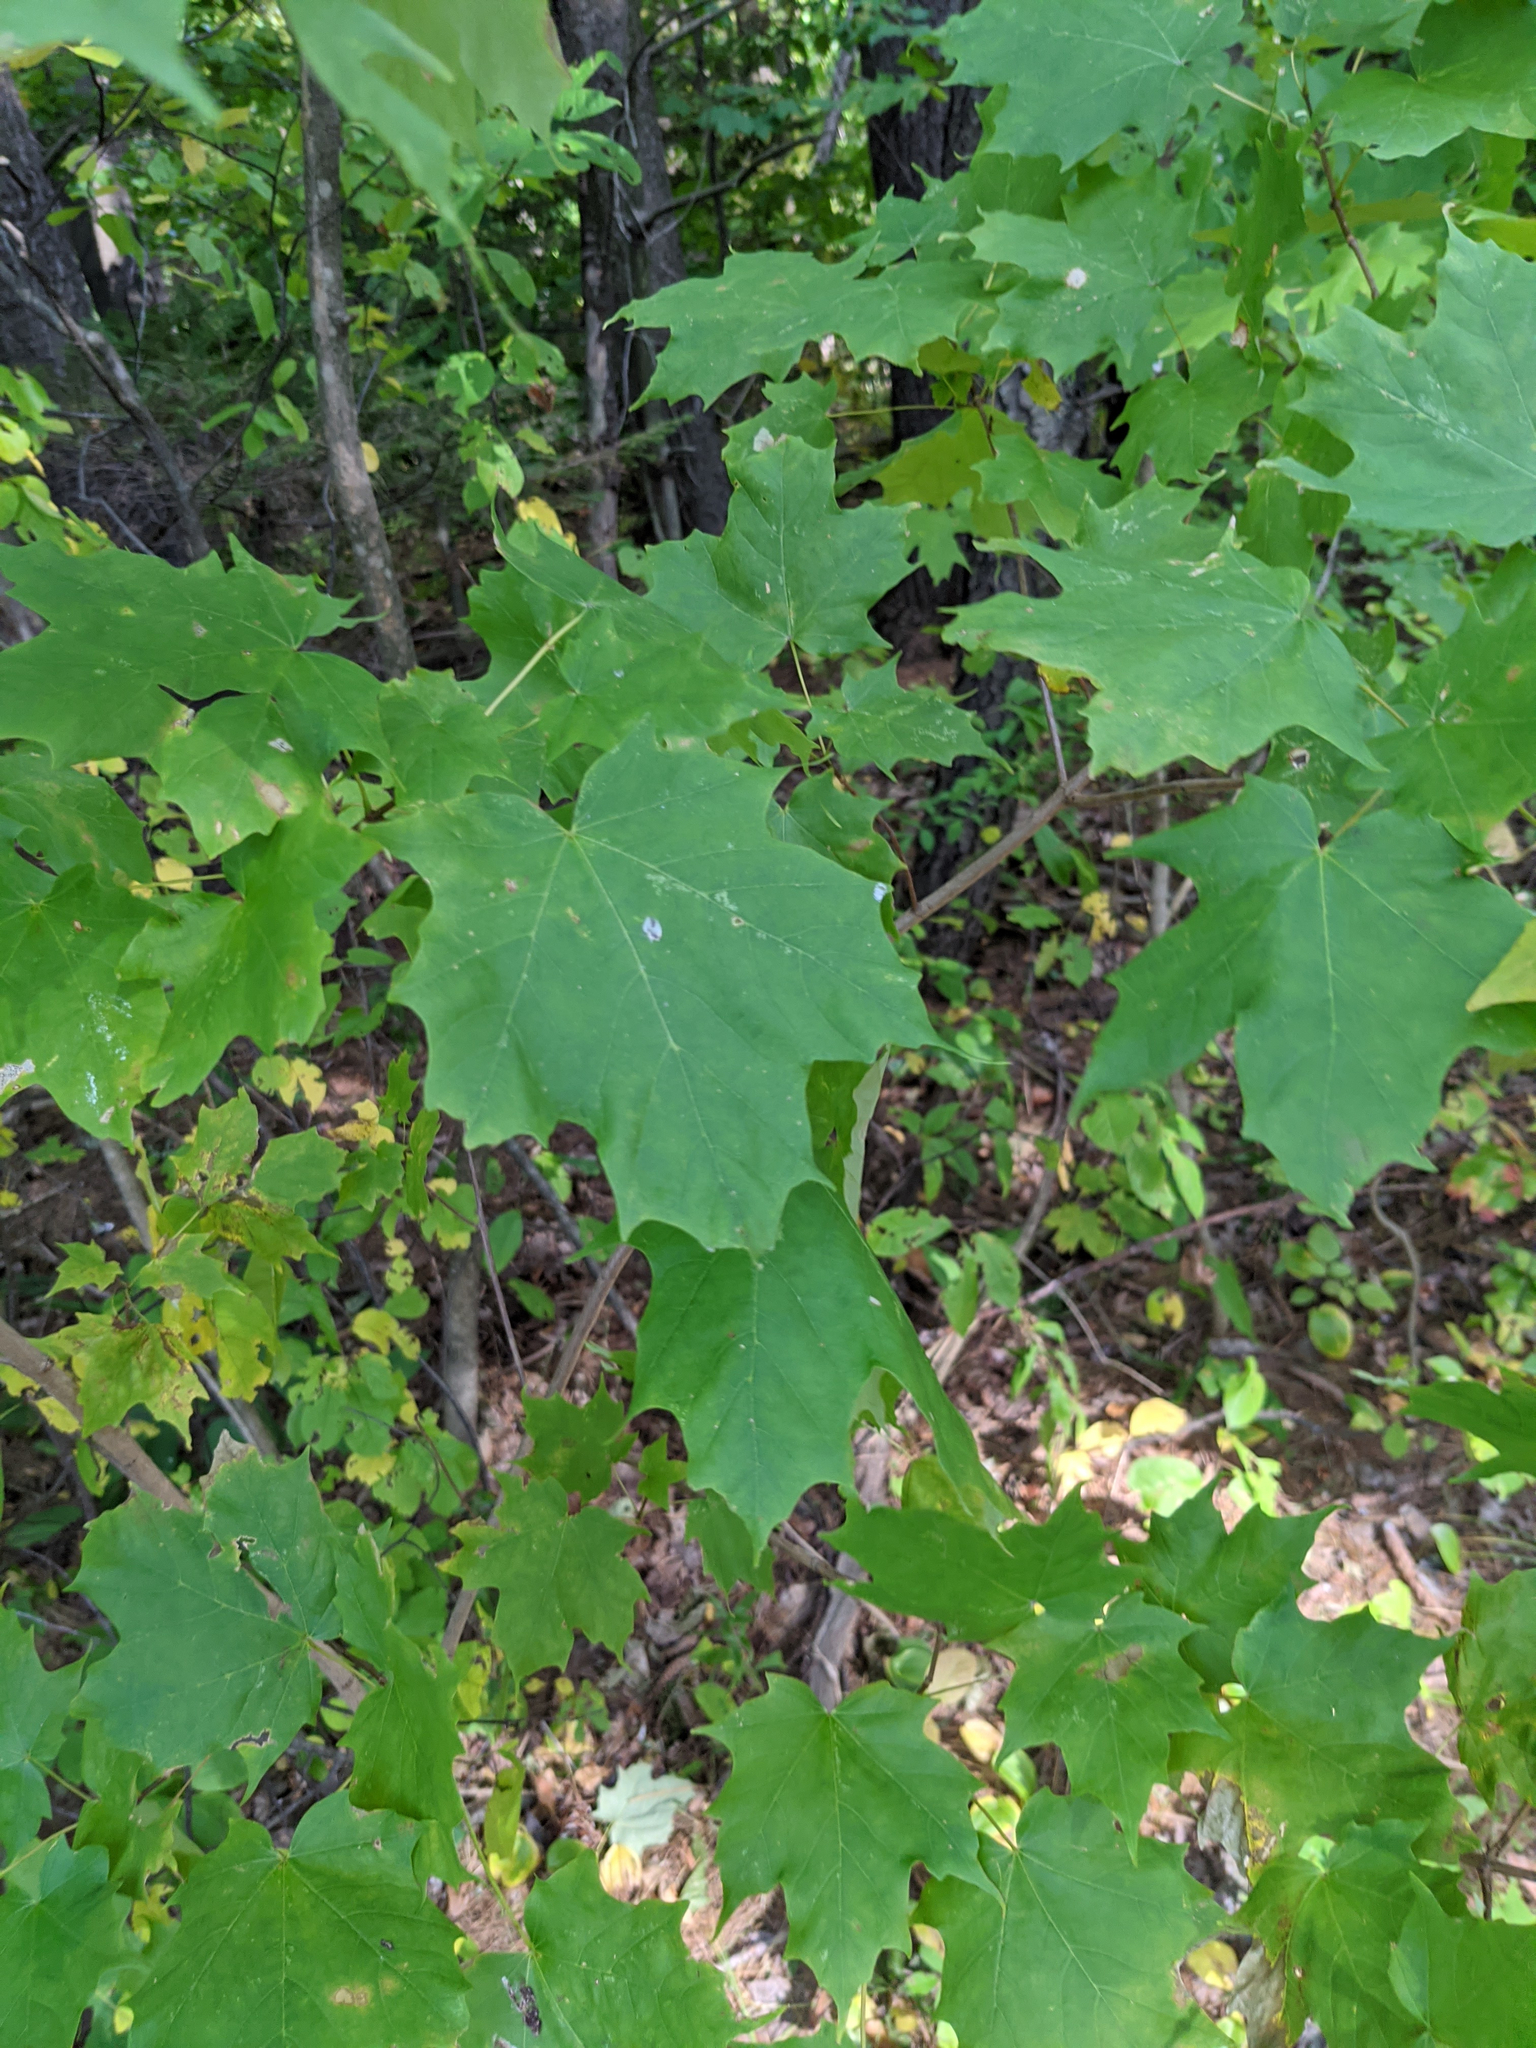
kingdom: Plantae
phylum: Tracheophyta
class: Magnoliopsida
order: Sapindales
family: Sapindaceae
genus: Acer
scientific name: Acer saccharum
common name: Sugar maple
